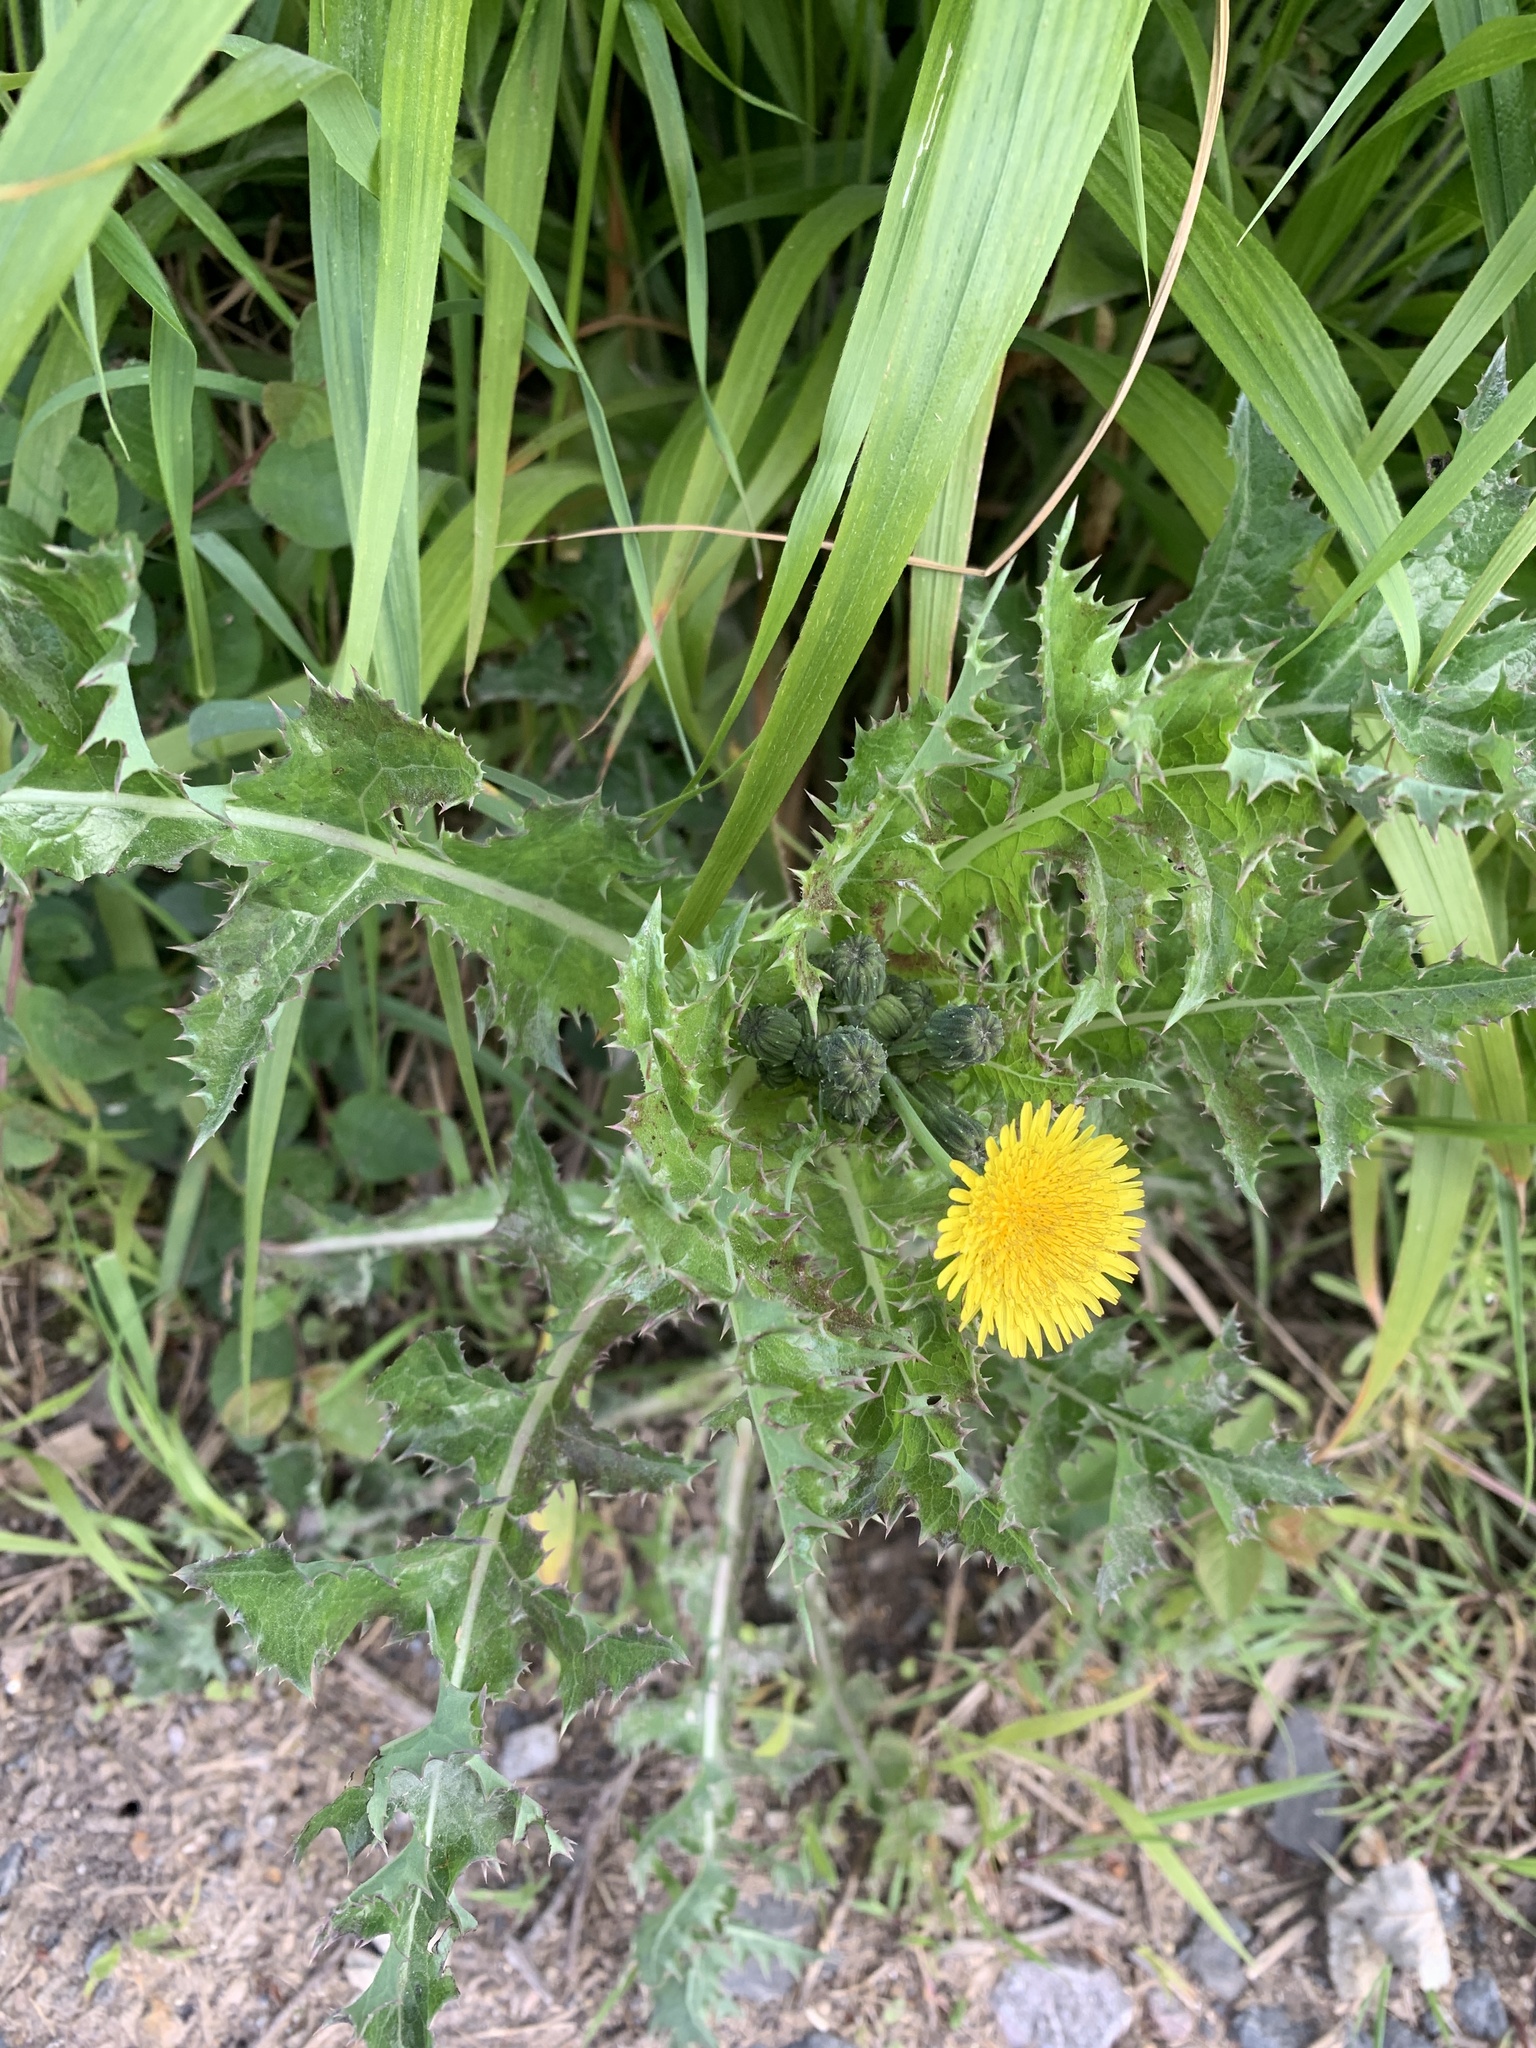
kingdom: Plantae
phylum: Tracheophyta
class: Magnoliopsida
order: Asterales
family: Asteraceae
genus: Sonchus
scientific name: Sonchus asper
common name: Prickly sow-thistle
